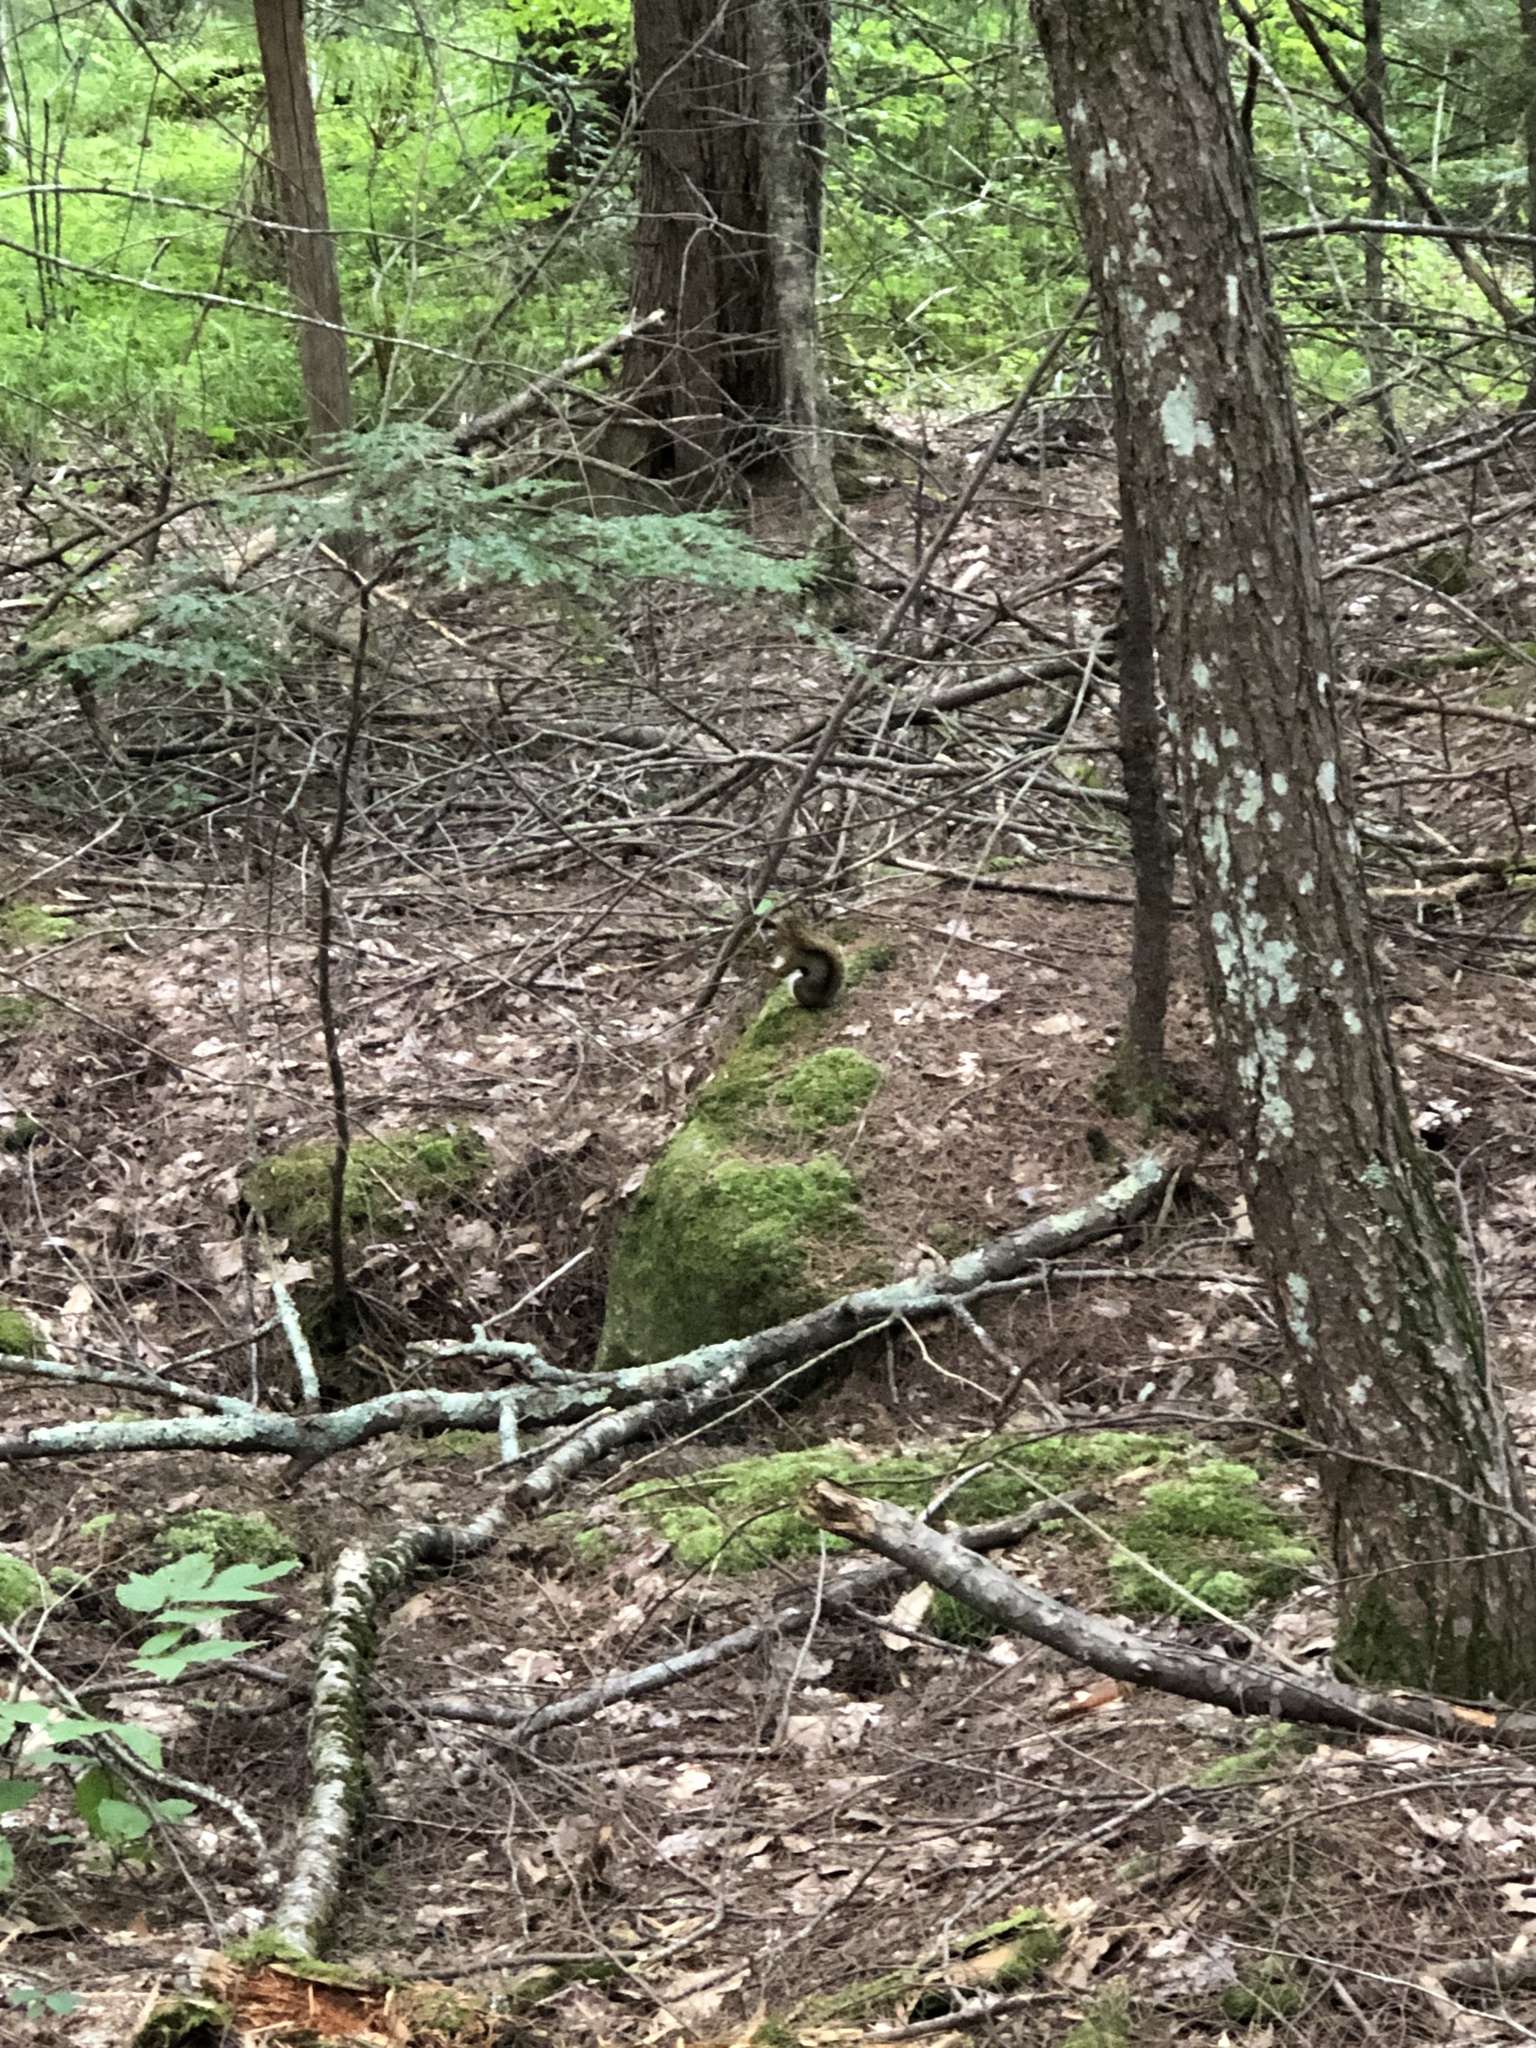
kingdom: Animalia
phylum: Chordata
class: Mammalia
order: Rodentia
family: Sciuridae
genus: Tamiasciurus
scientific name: Tamiasciurus hudsonicus
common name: Red squirrel
